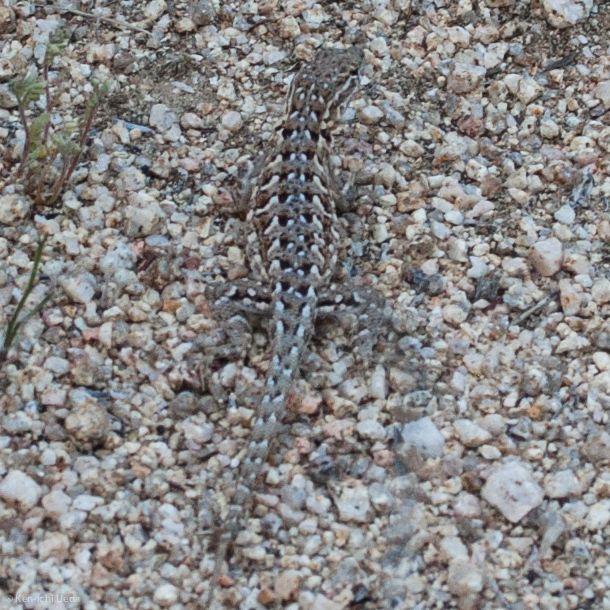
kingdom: Animalia
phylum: Chordata
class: Squamata
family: Phrynosomatidae
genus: Uta
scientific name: Uta stansburiana
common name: Side-blotched lizard
